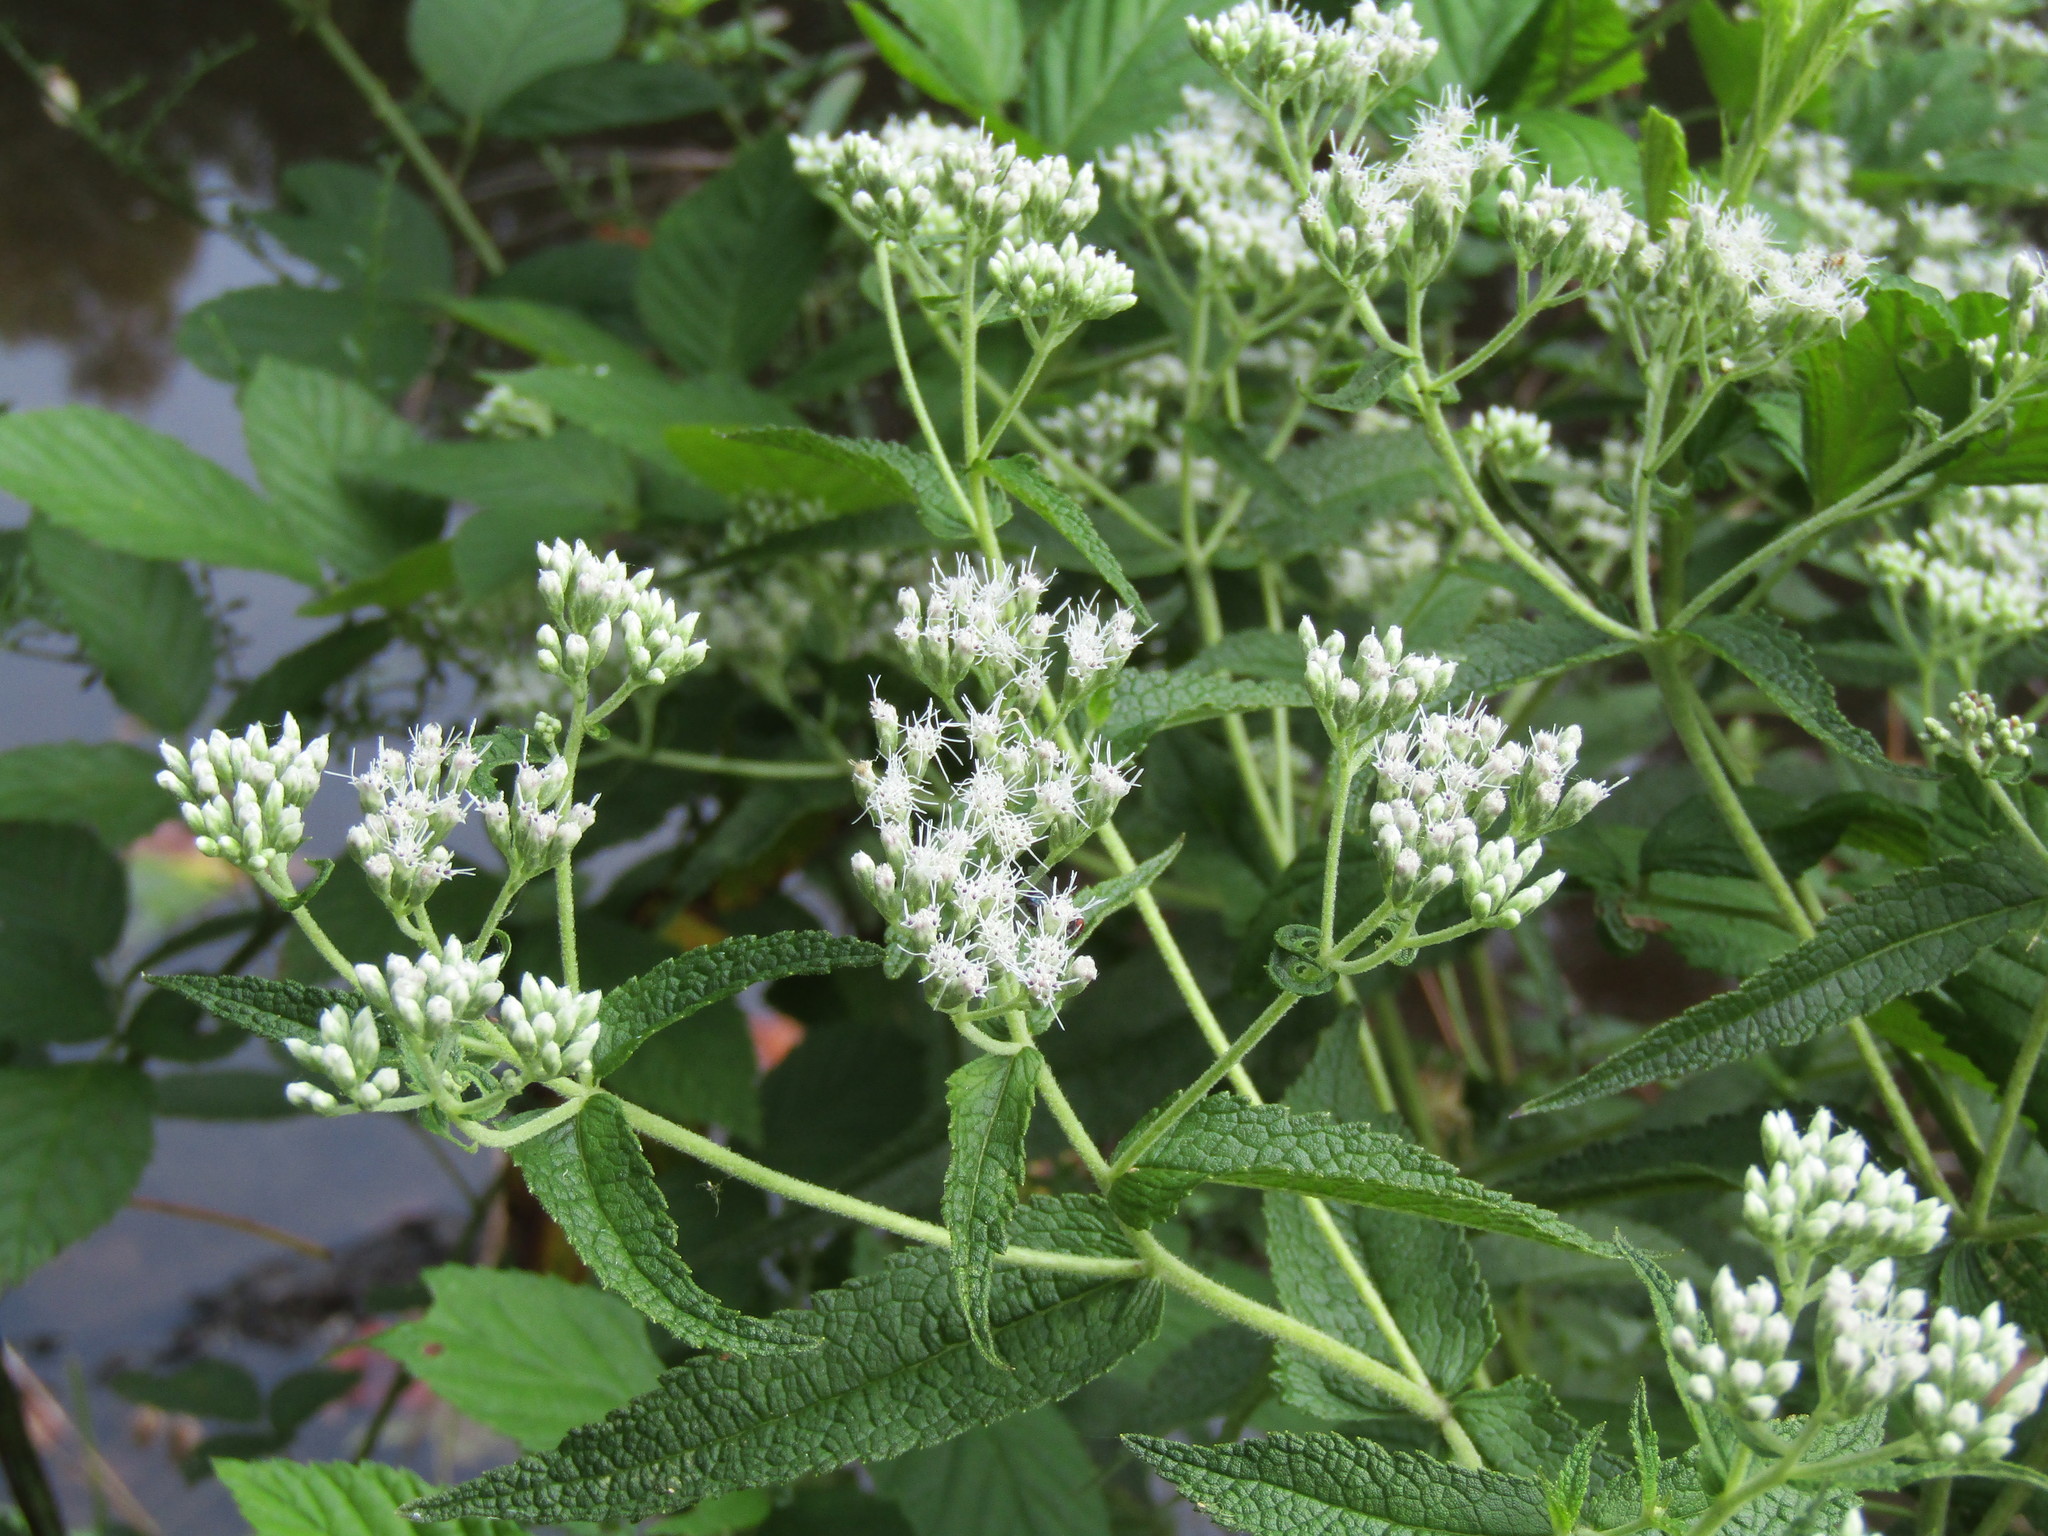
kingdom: Plantae
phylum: Tracheophyta
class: Magnoliopsida
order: Asterales
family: Asteraceae
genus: Eupatorium
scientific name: Eupatorium perfoliatum
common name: Boneset
